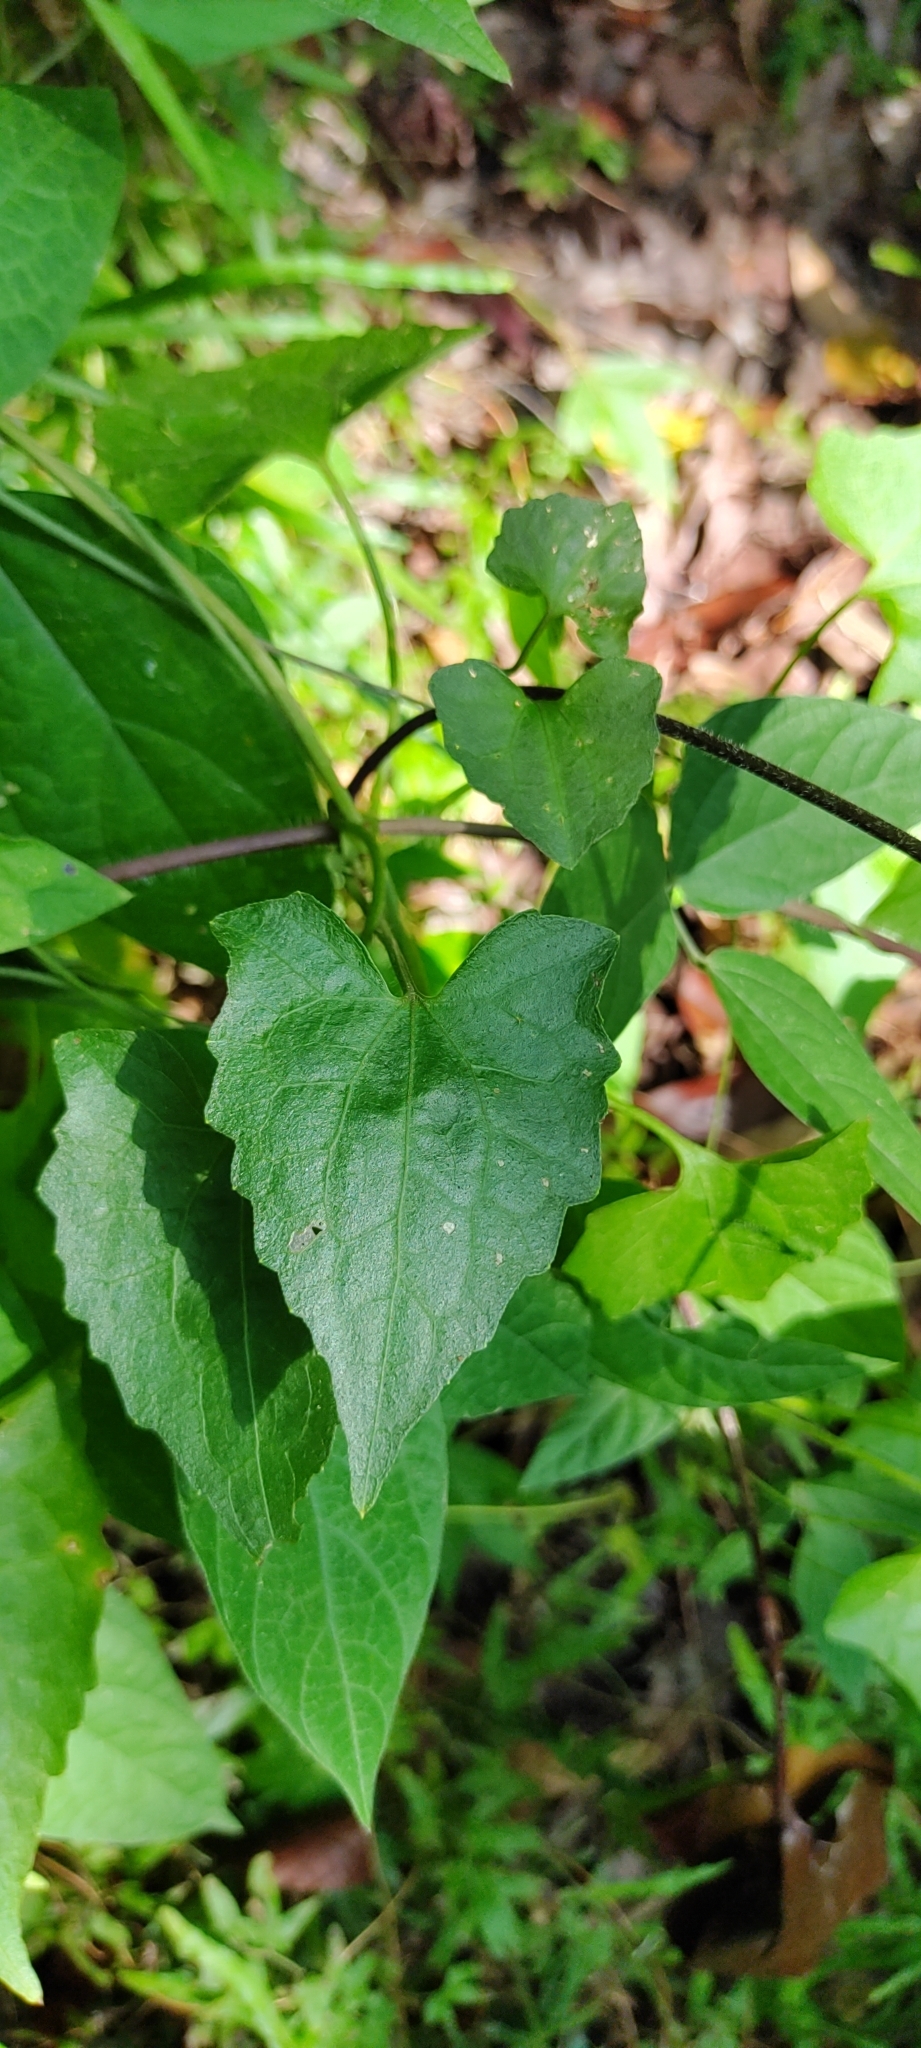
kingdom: Plantae
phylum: Tracheophyta
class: Magnoliopsida
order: Asterales
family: Asteraceae
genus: Mikania
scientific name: Mikania micrantha
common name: Mile-a-minute
